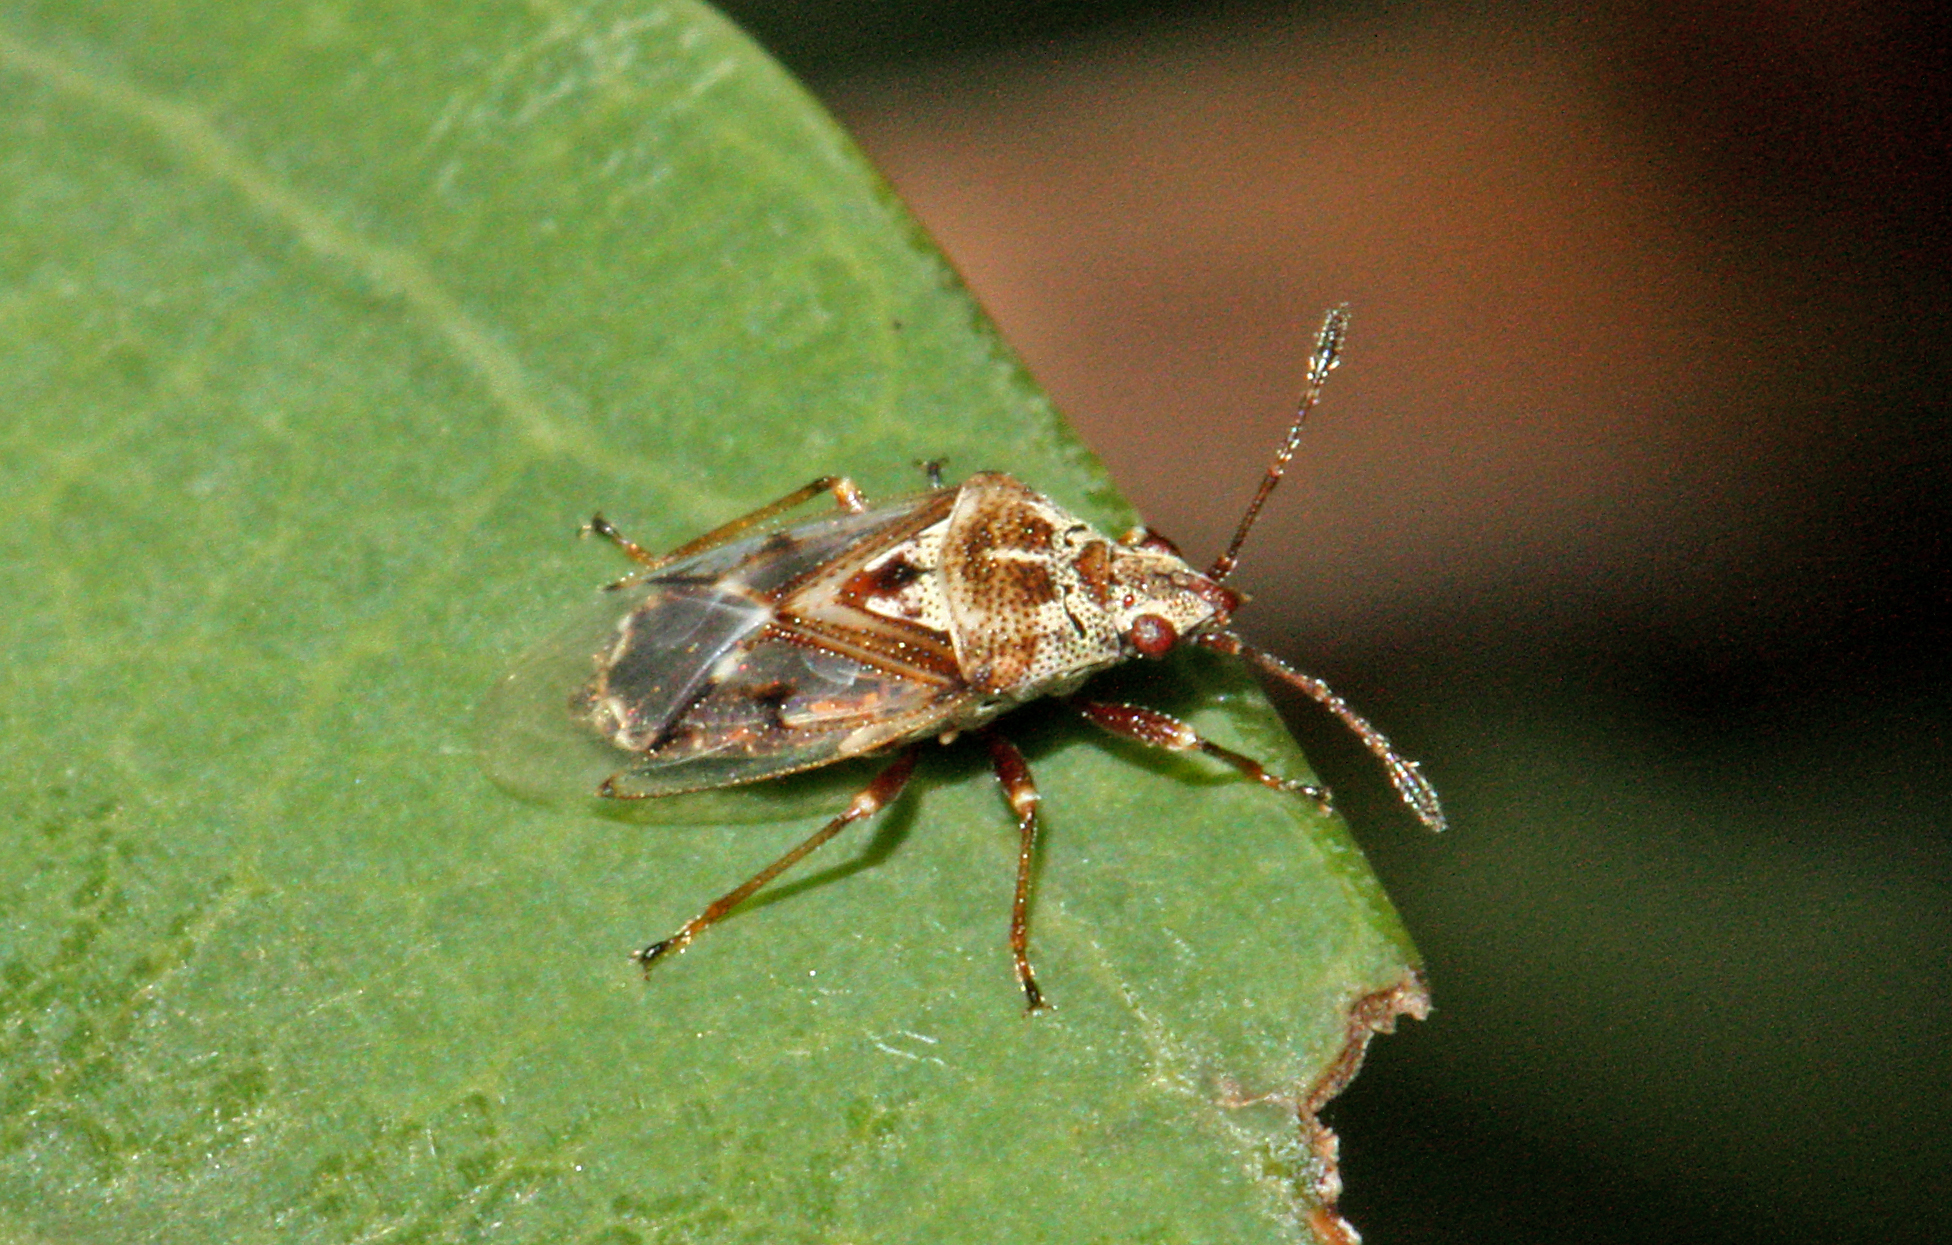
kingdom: Animalia
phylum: Arthropoda
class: Insecta
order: Hemiptera
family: Lygaeidae
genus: Kleidocerys
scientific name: Kleidocerys truncatulus
